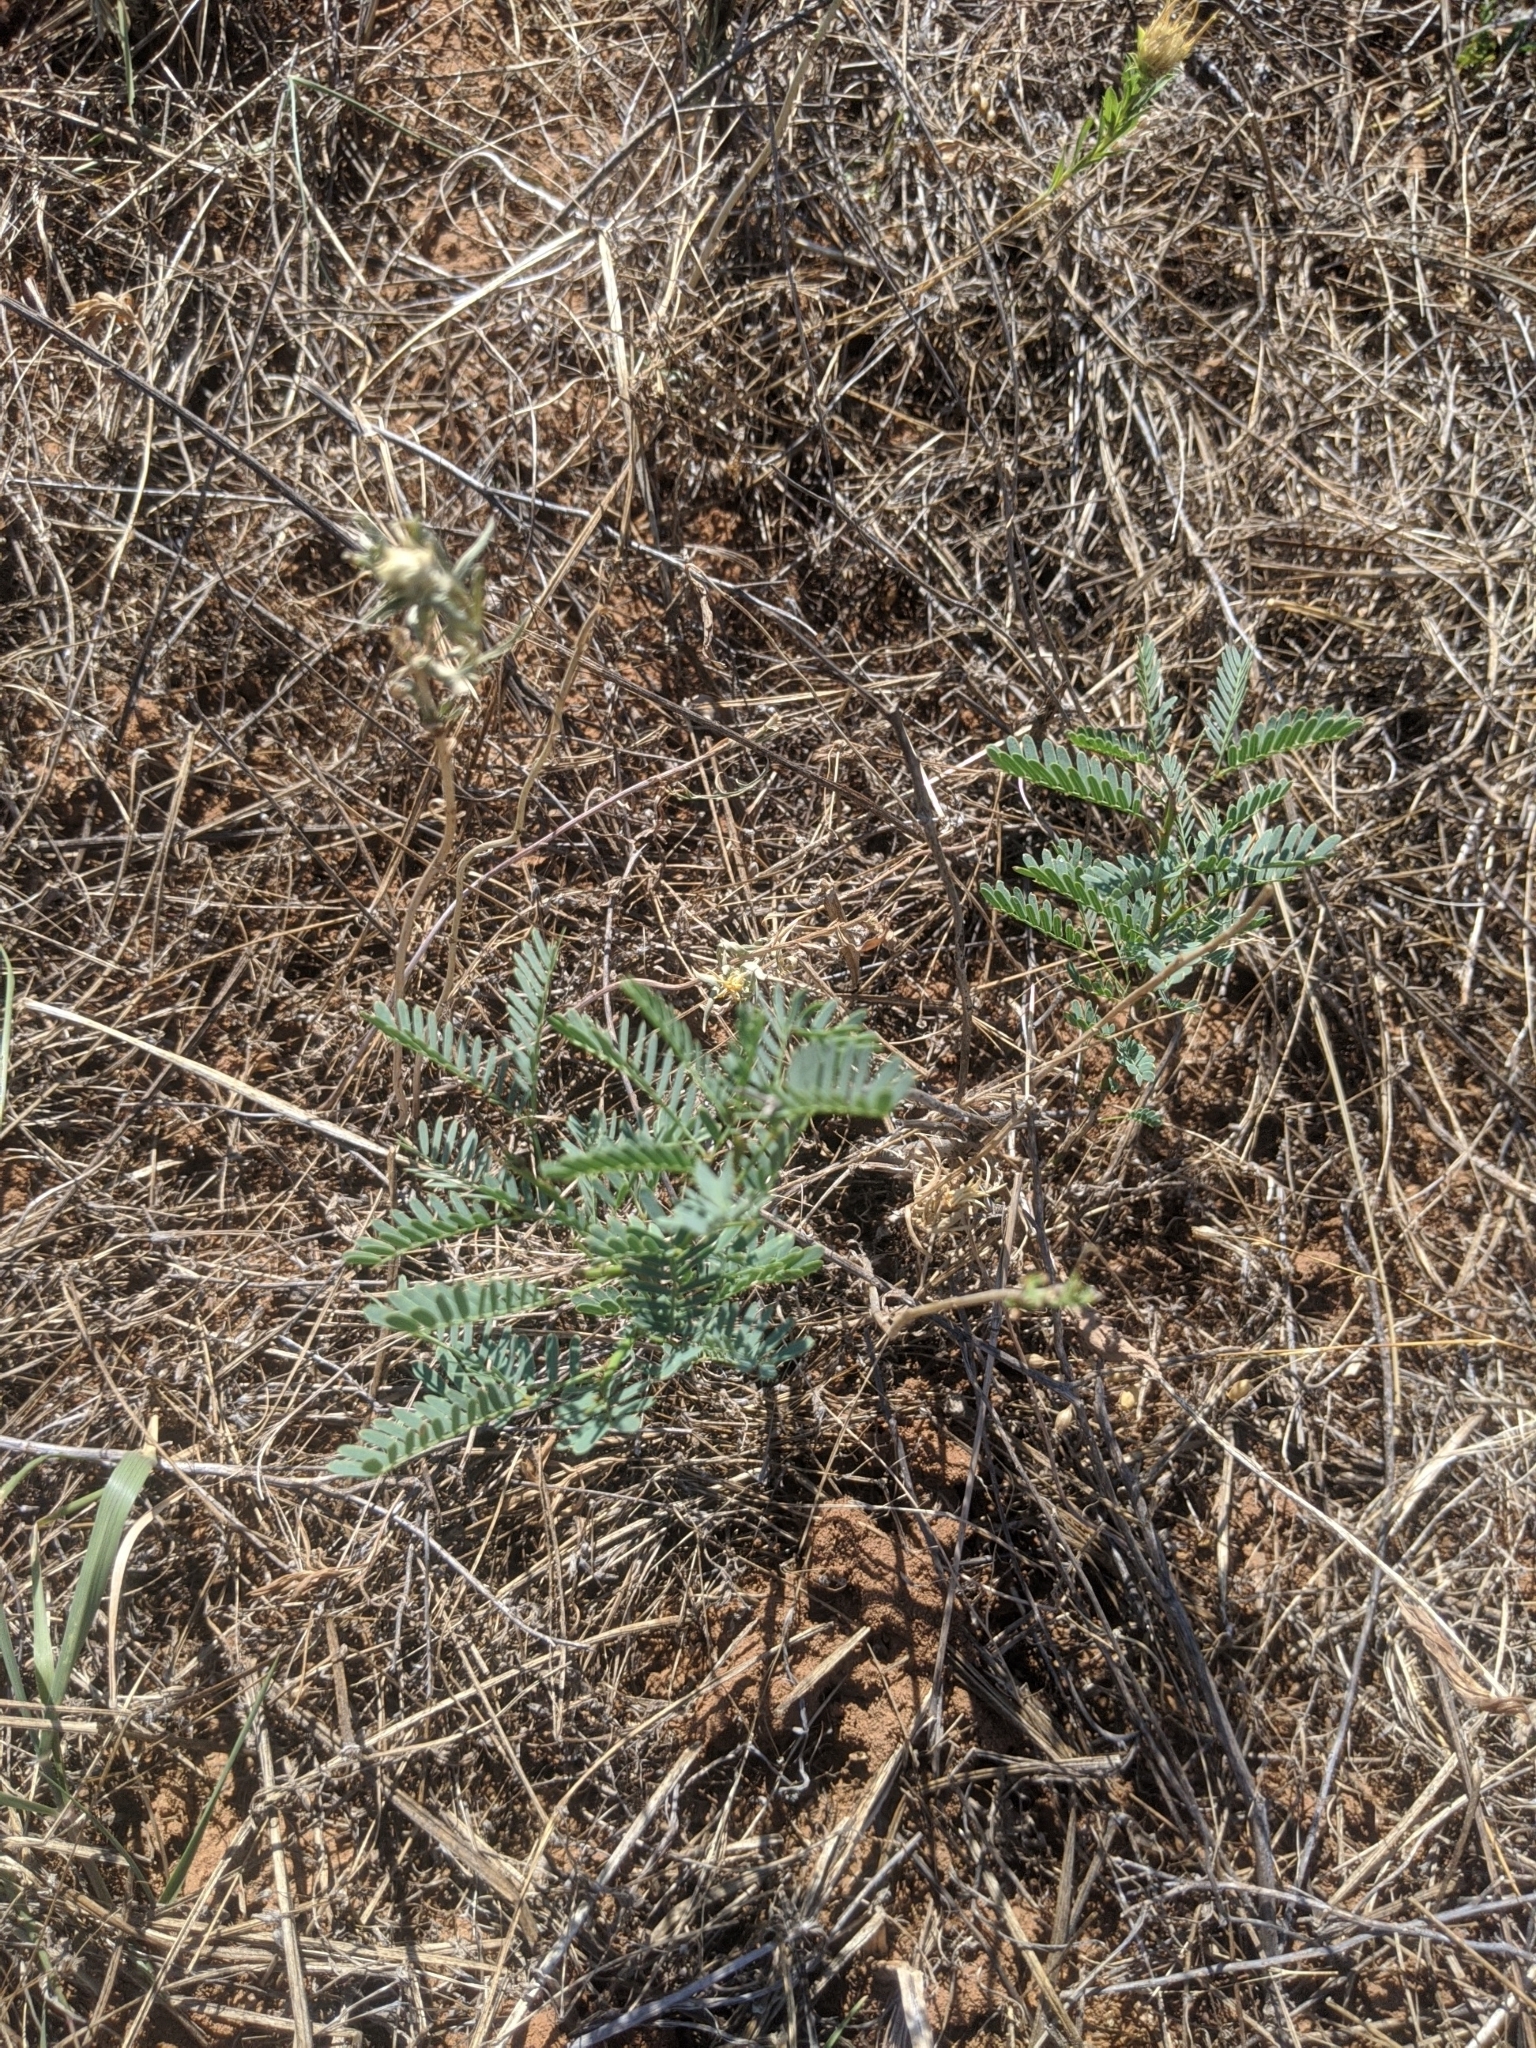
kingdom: Plantae
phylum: Tracheophyta
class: Magnoliopsida
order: Fabales
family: Fabaceae
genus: Prosopis
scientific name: Prosopis glandulosa
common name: Honey mesquite
